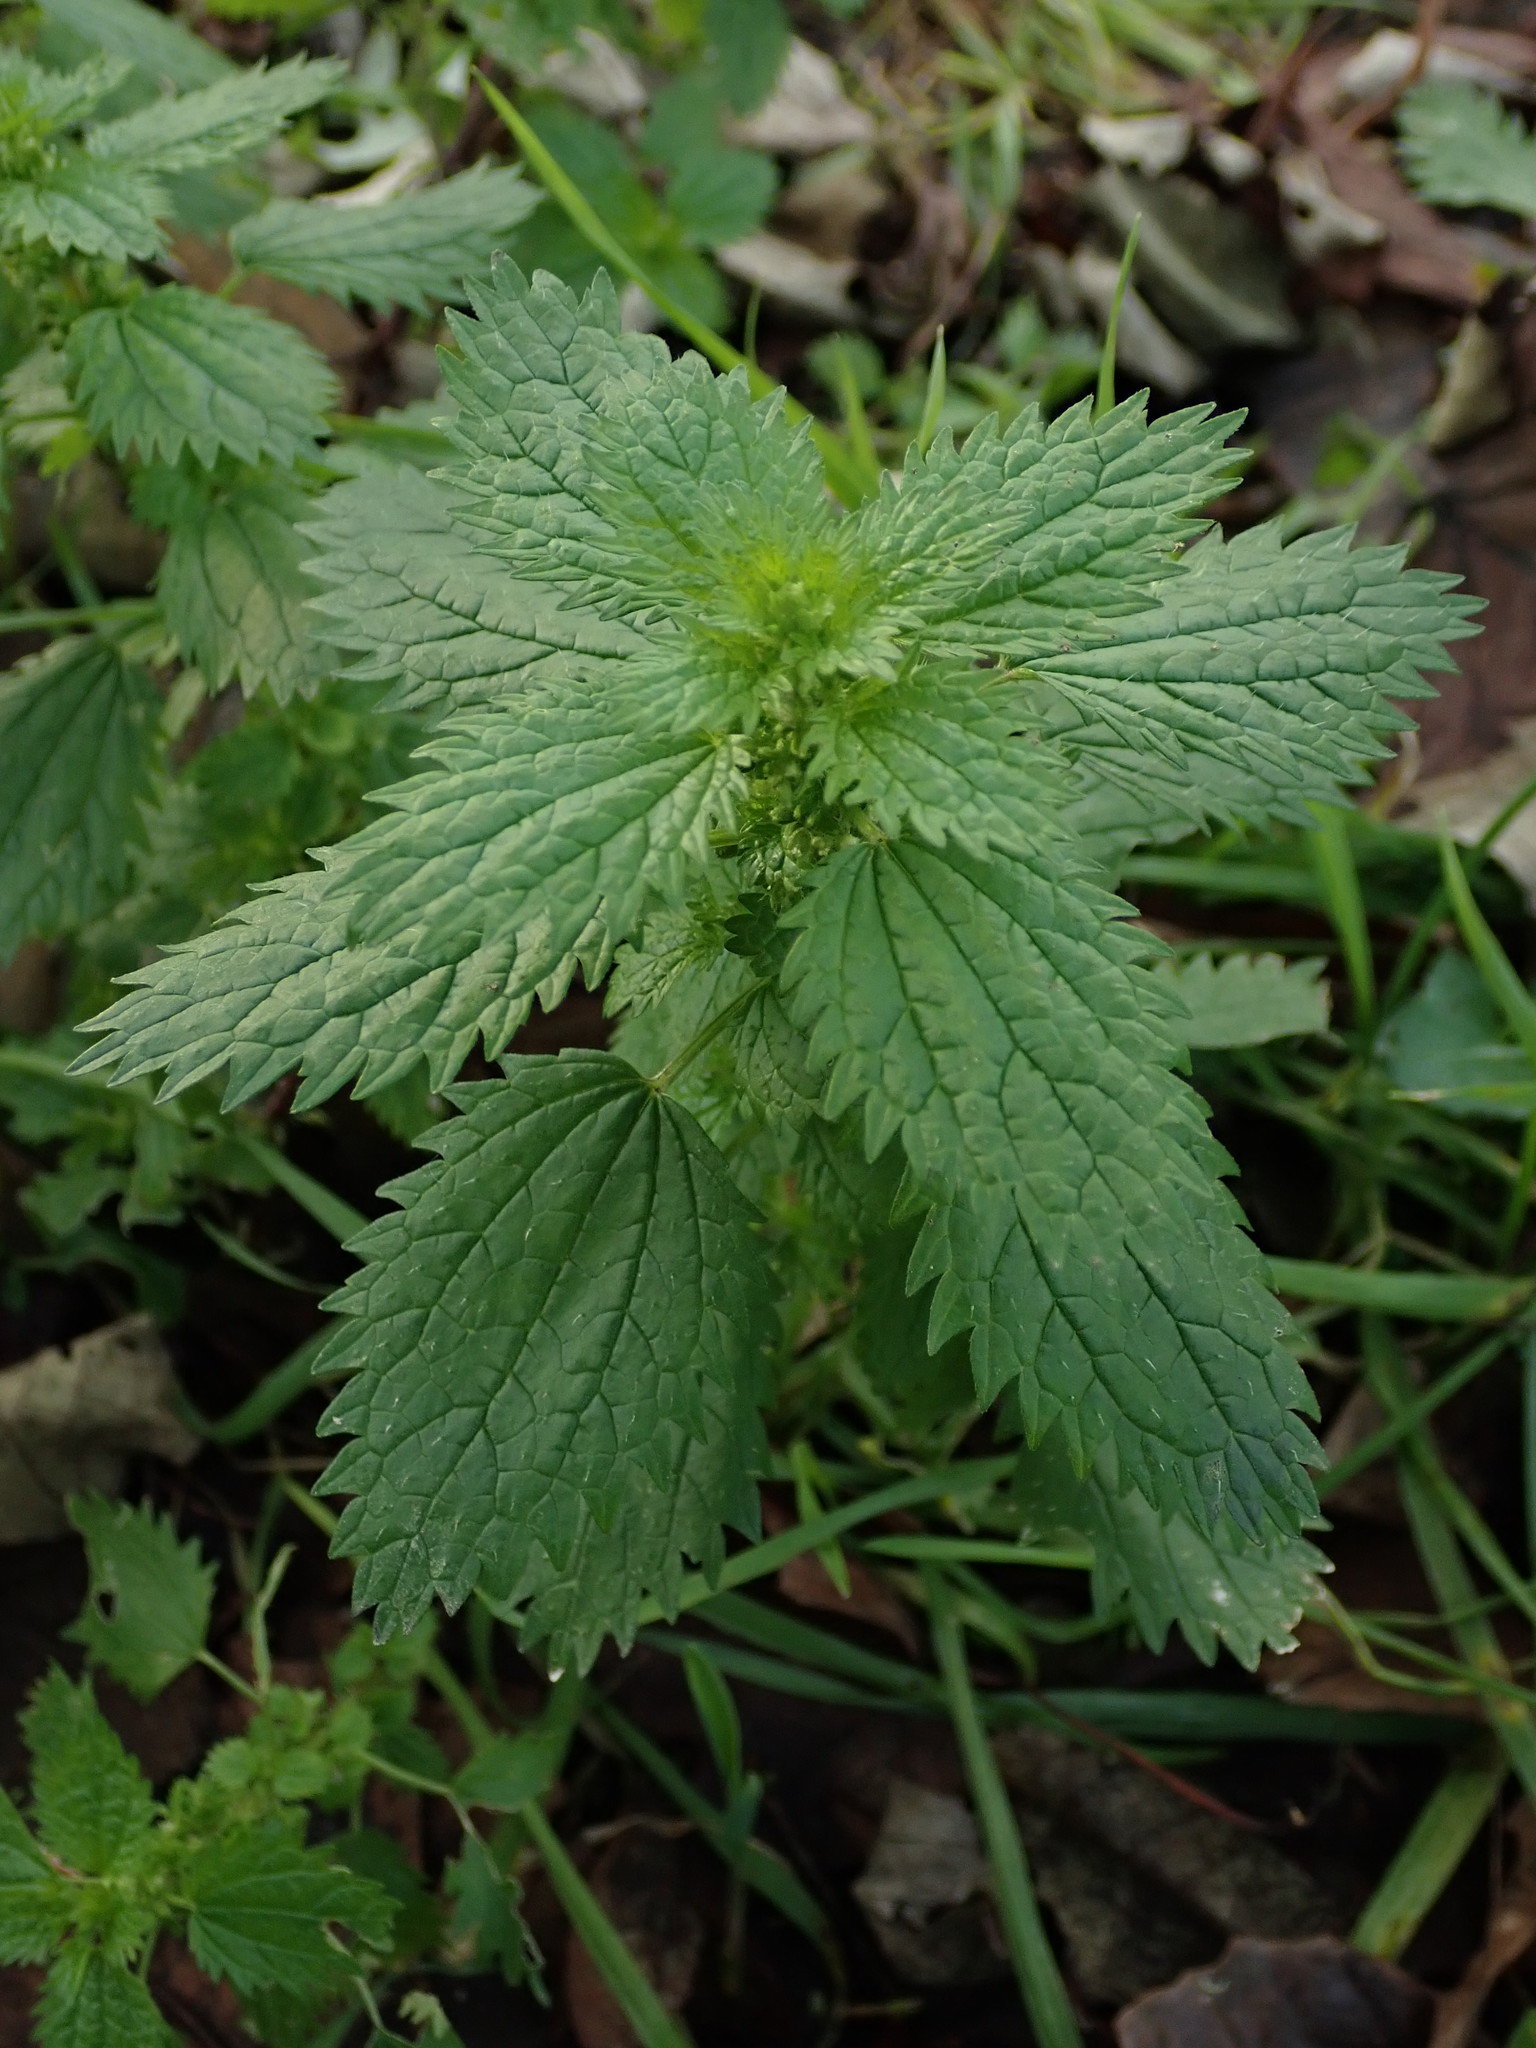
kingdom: Plantae
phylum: Tracheophyta
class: Magnoliopsida
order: Rosales
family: Urticaceae
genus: Urtica
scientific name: Urtica urens
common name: Dwarf nettle
